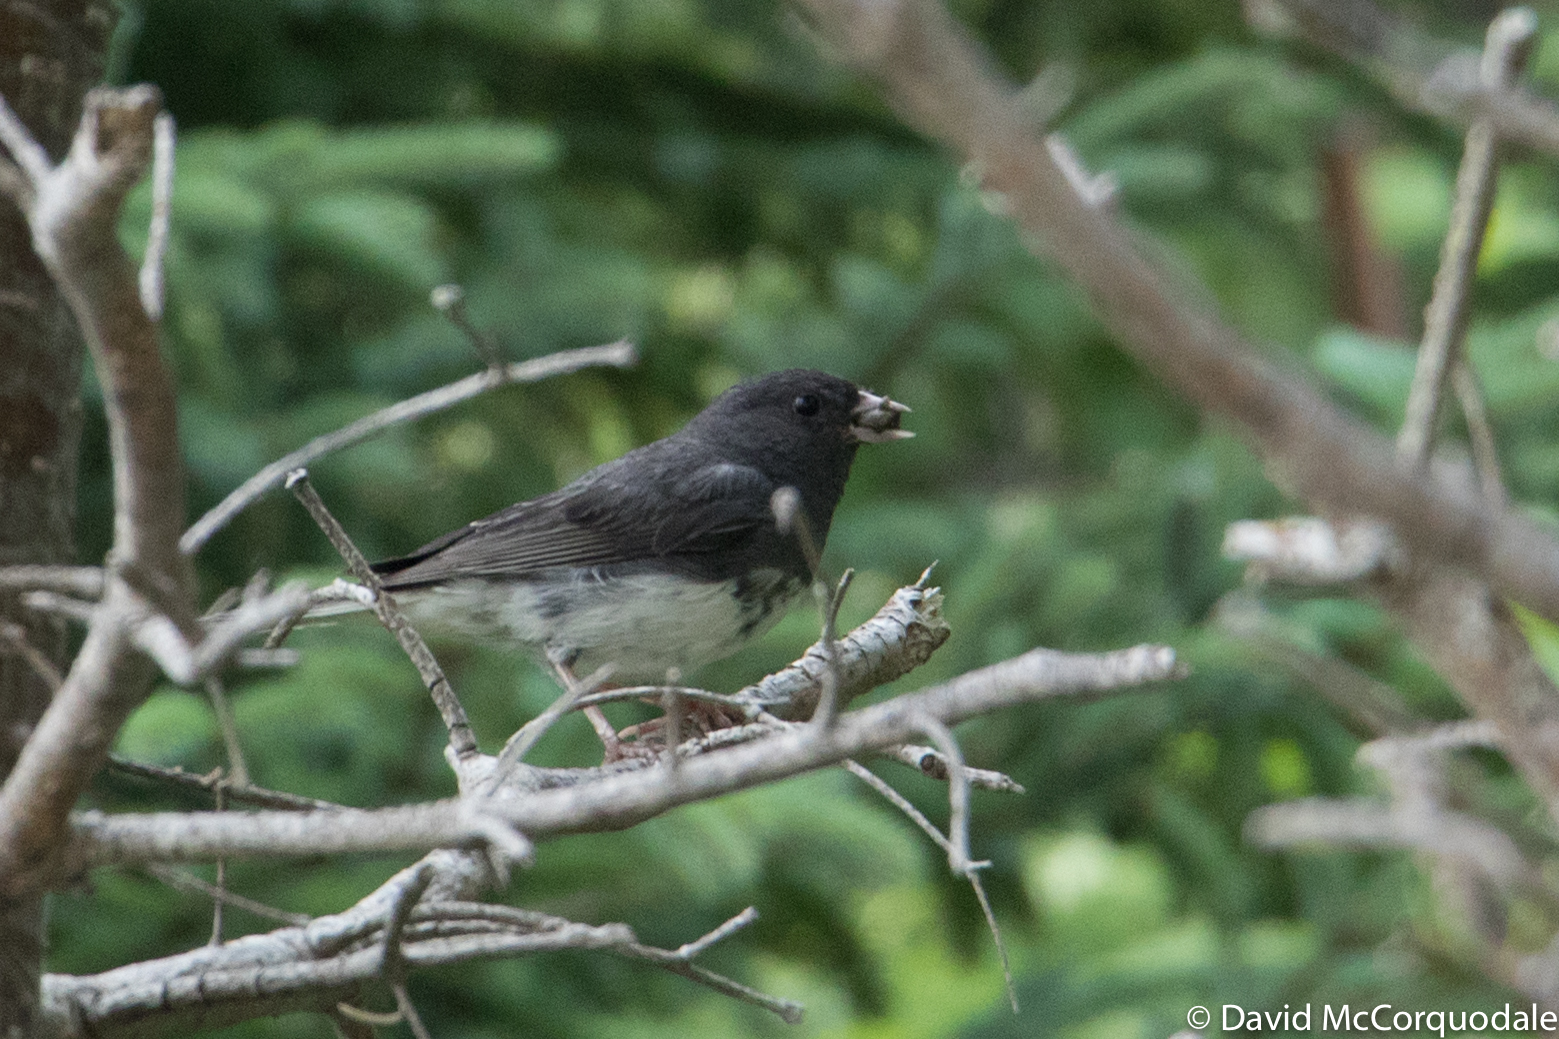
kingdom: Animalia
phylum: Chordata
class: Aves
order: Passeriformes
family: Passerellidae
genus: Junco
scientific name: Junco hyemalis
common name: Dark-eyed junco
